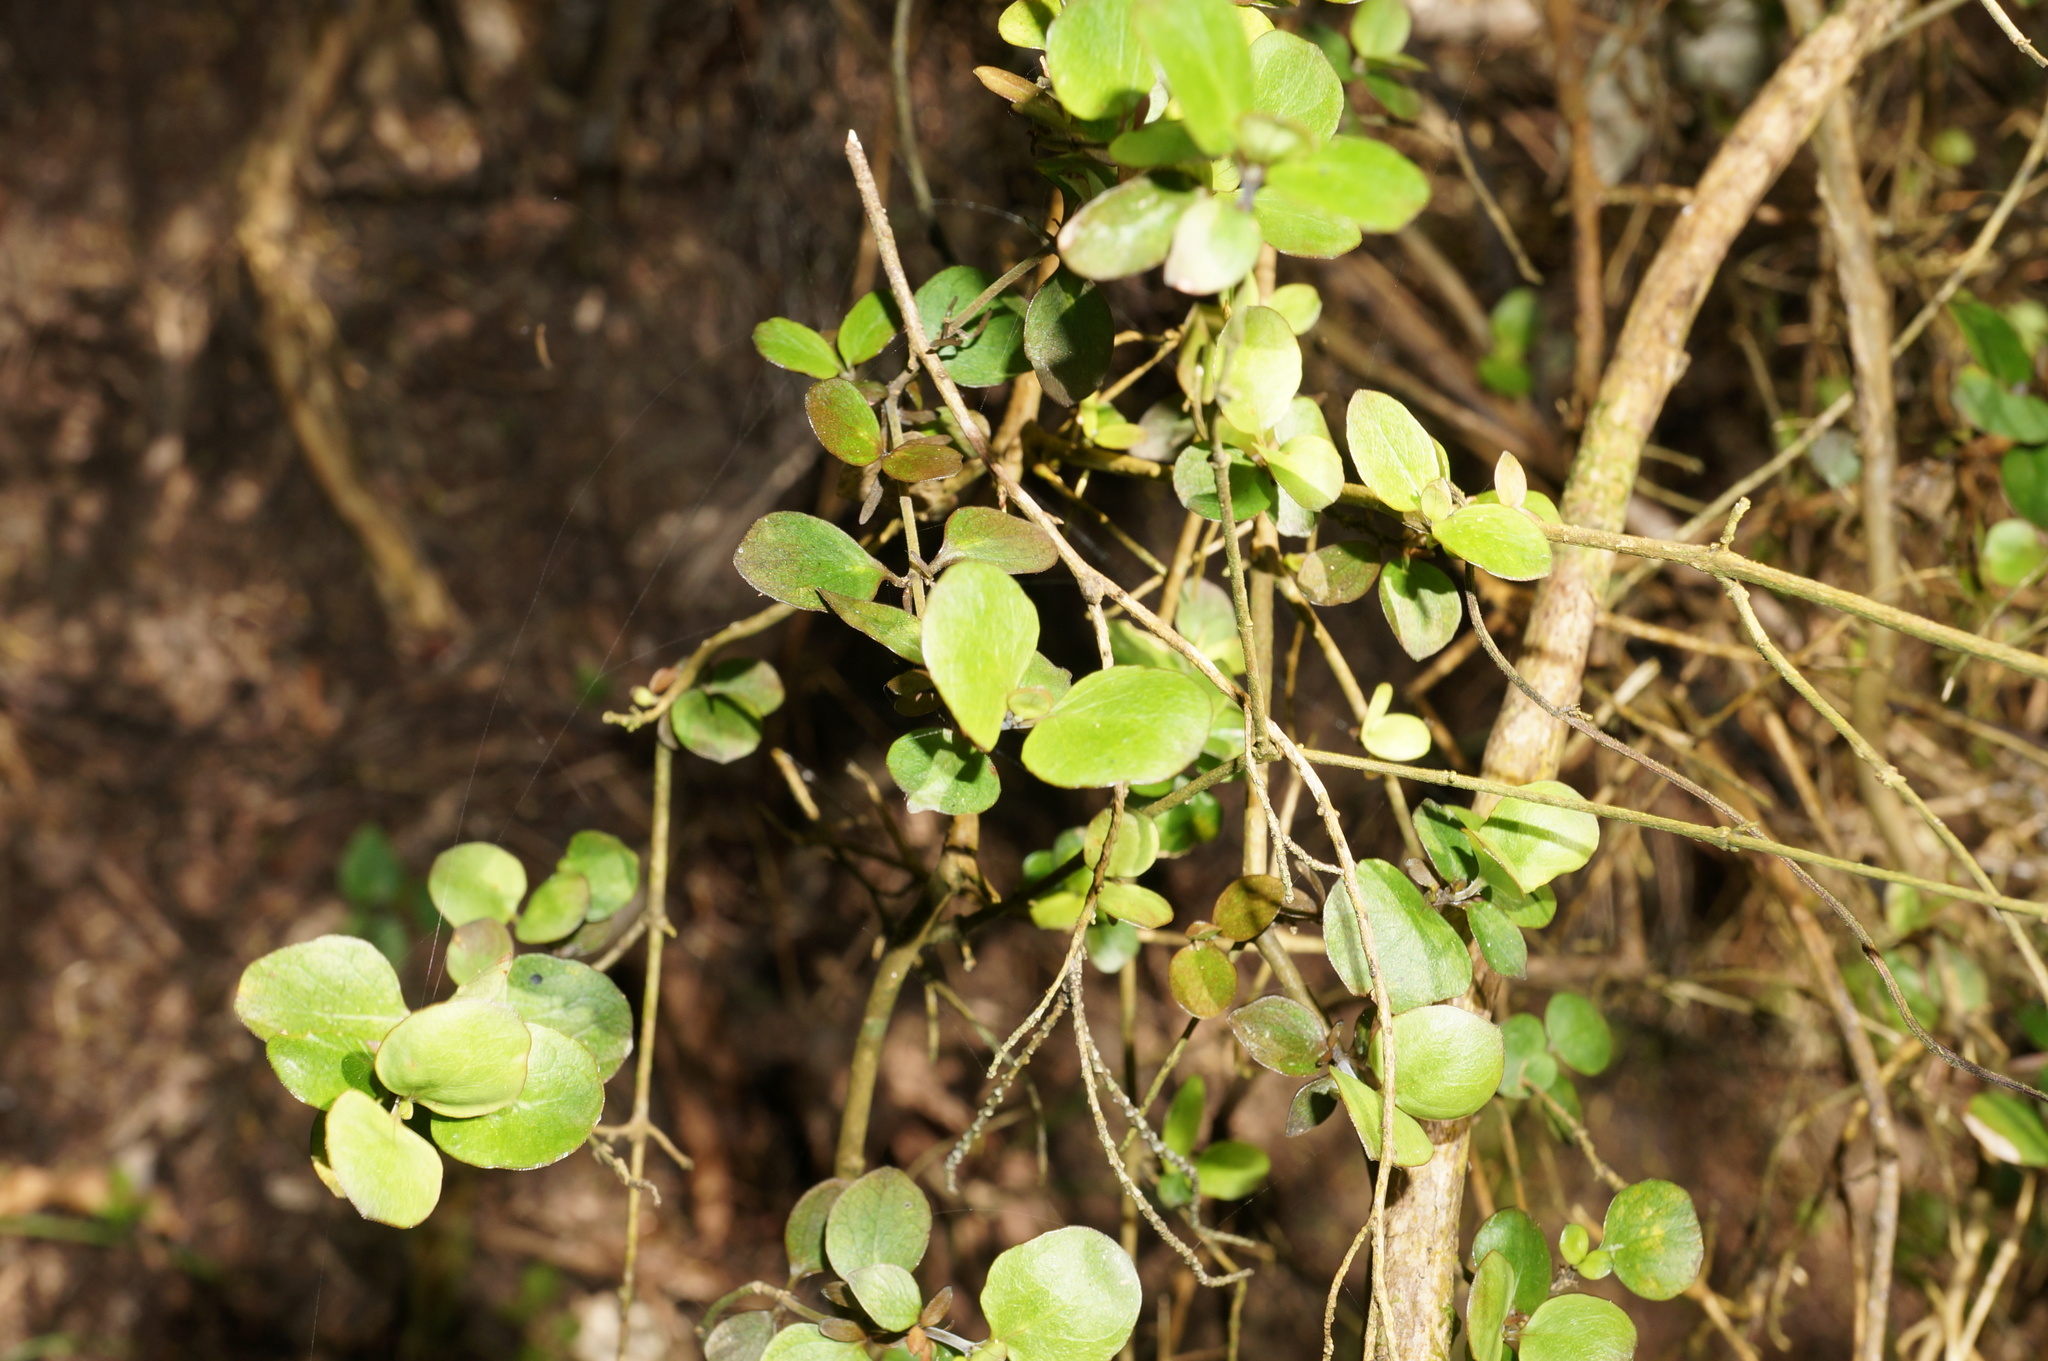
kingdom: Plantae
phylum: Tracheophyta
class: Magnoliopsida
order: Gentianales
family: Rubiaceae
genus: Coprosma
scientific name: Coprosma rhamnoides
